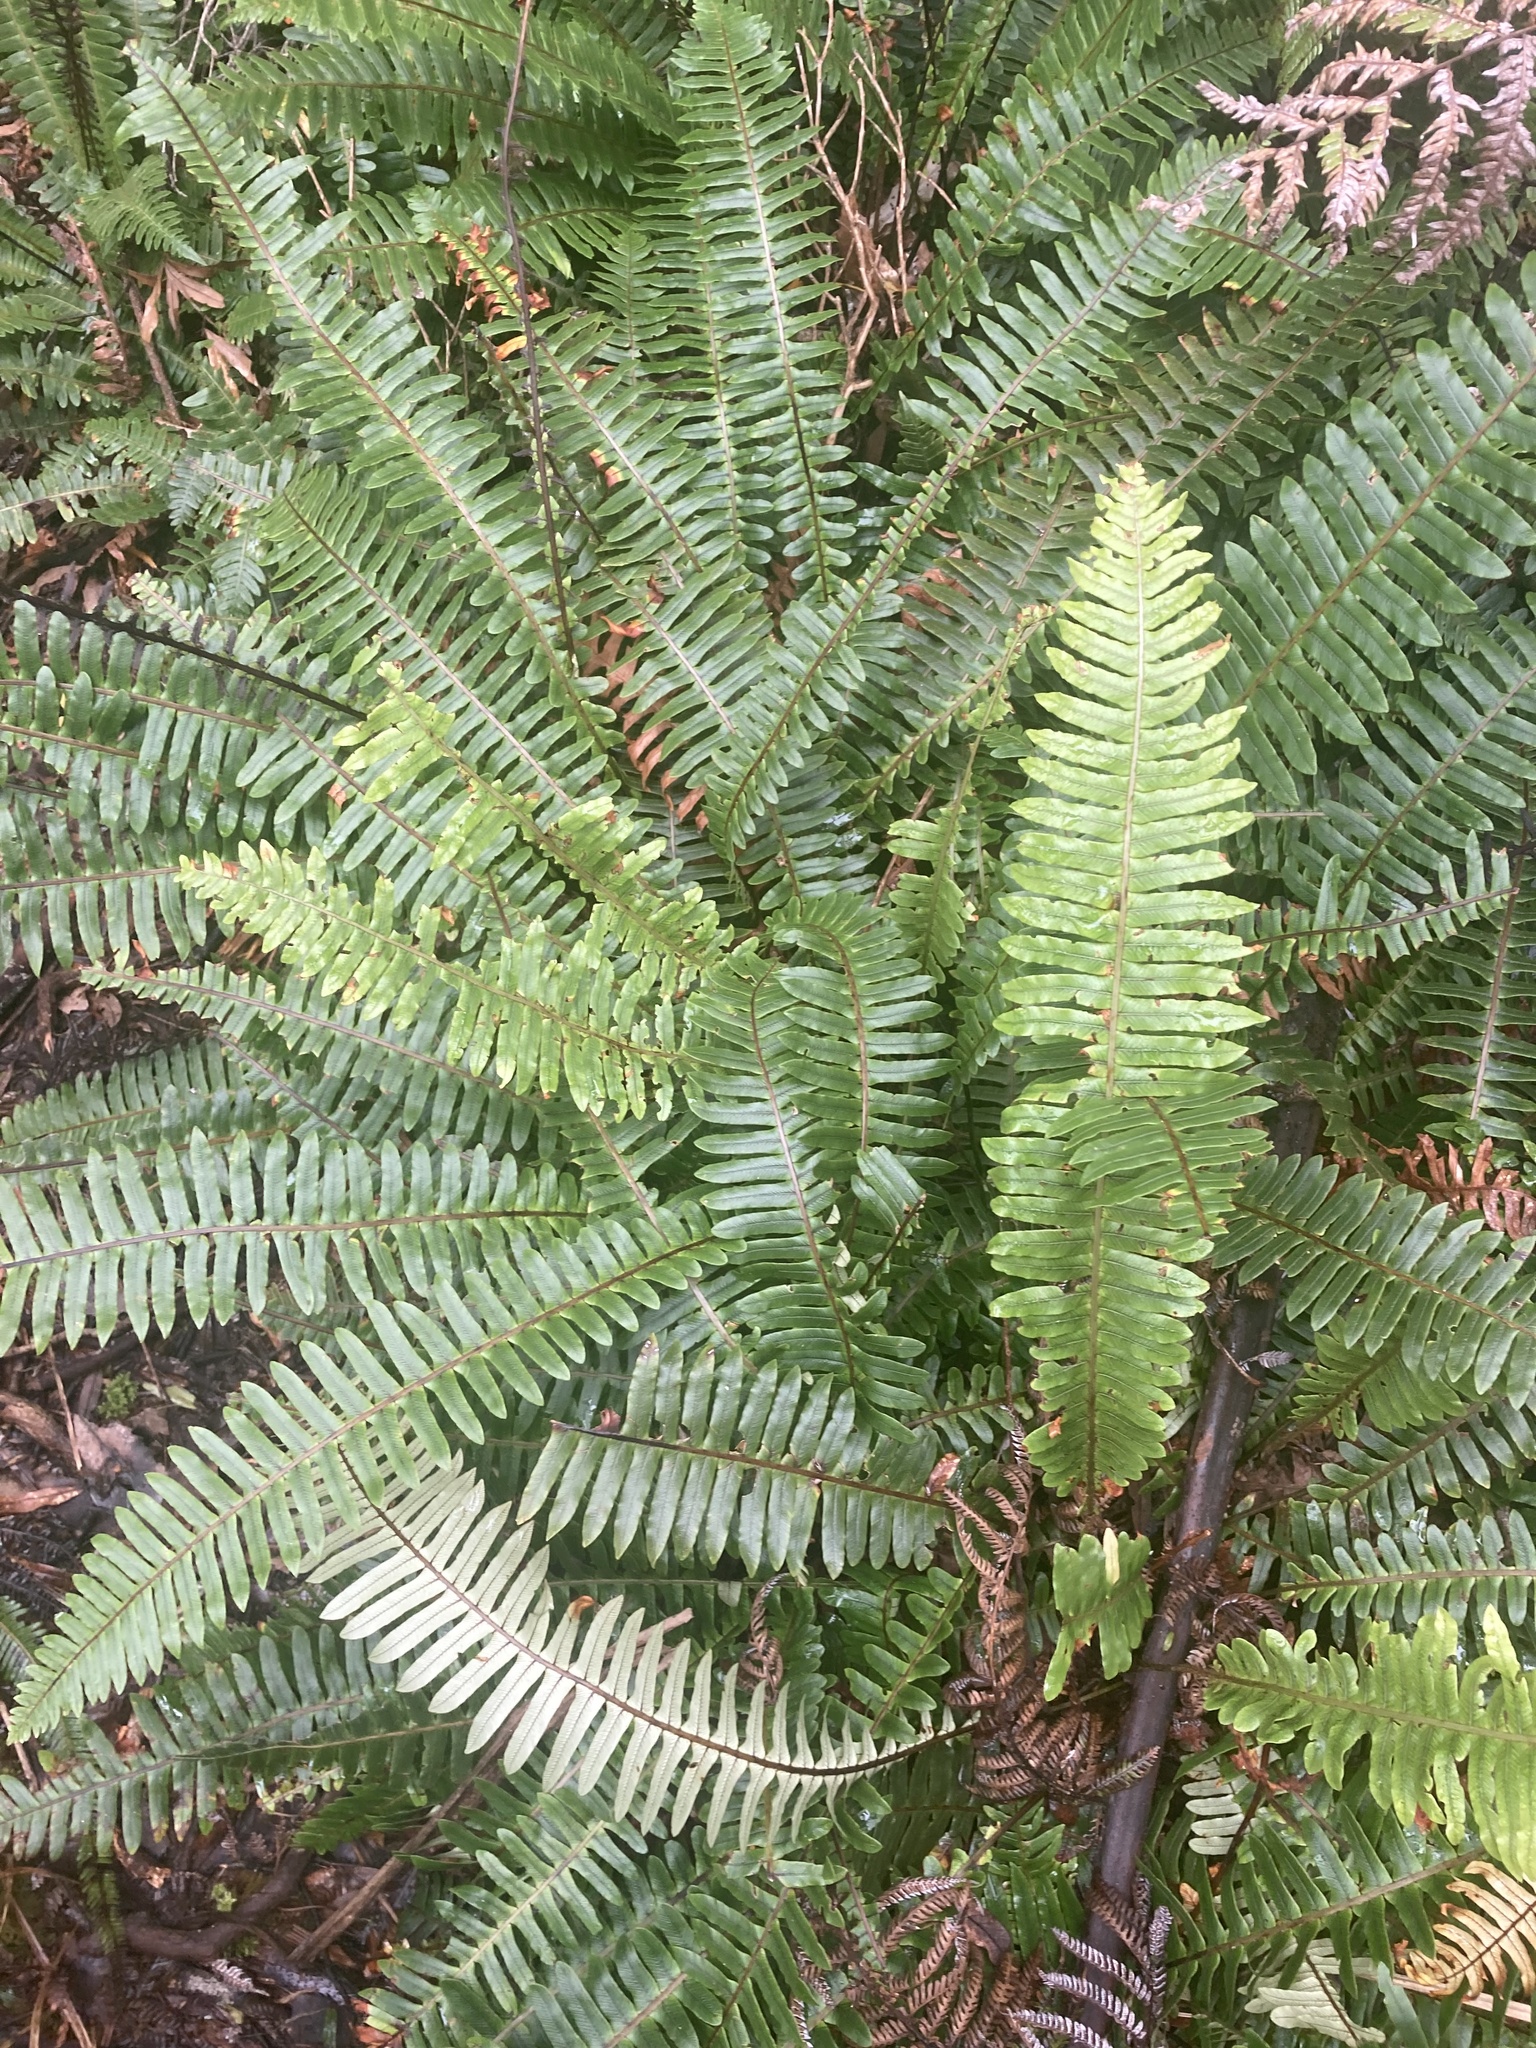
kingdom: Plantae
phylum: Tracheophyta
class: Polypodiopsida
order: Polypodiales
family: Blechnaceae
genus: Lomaria
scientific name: Lomaria discolor
